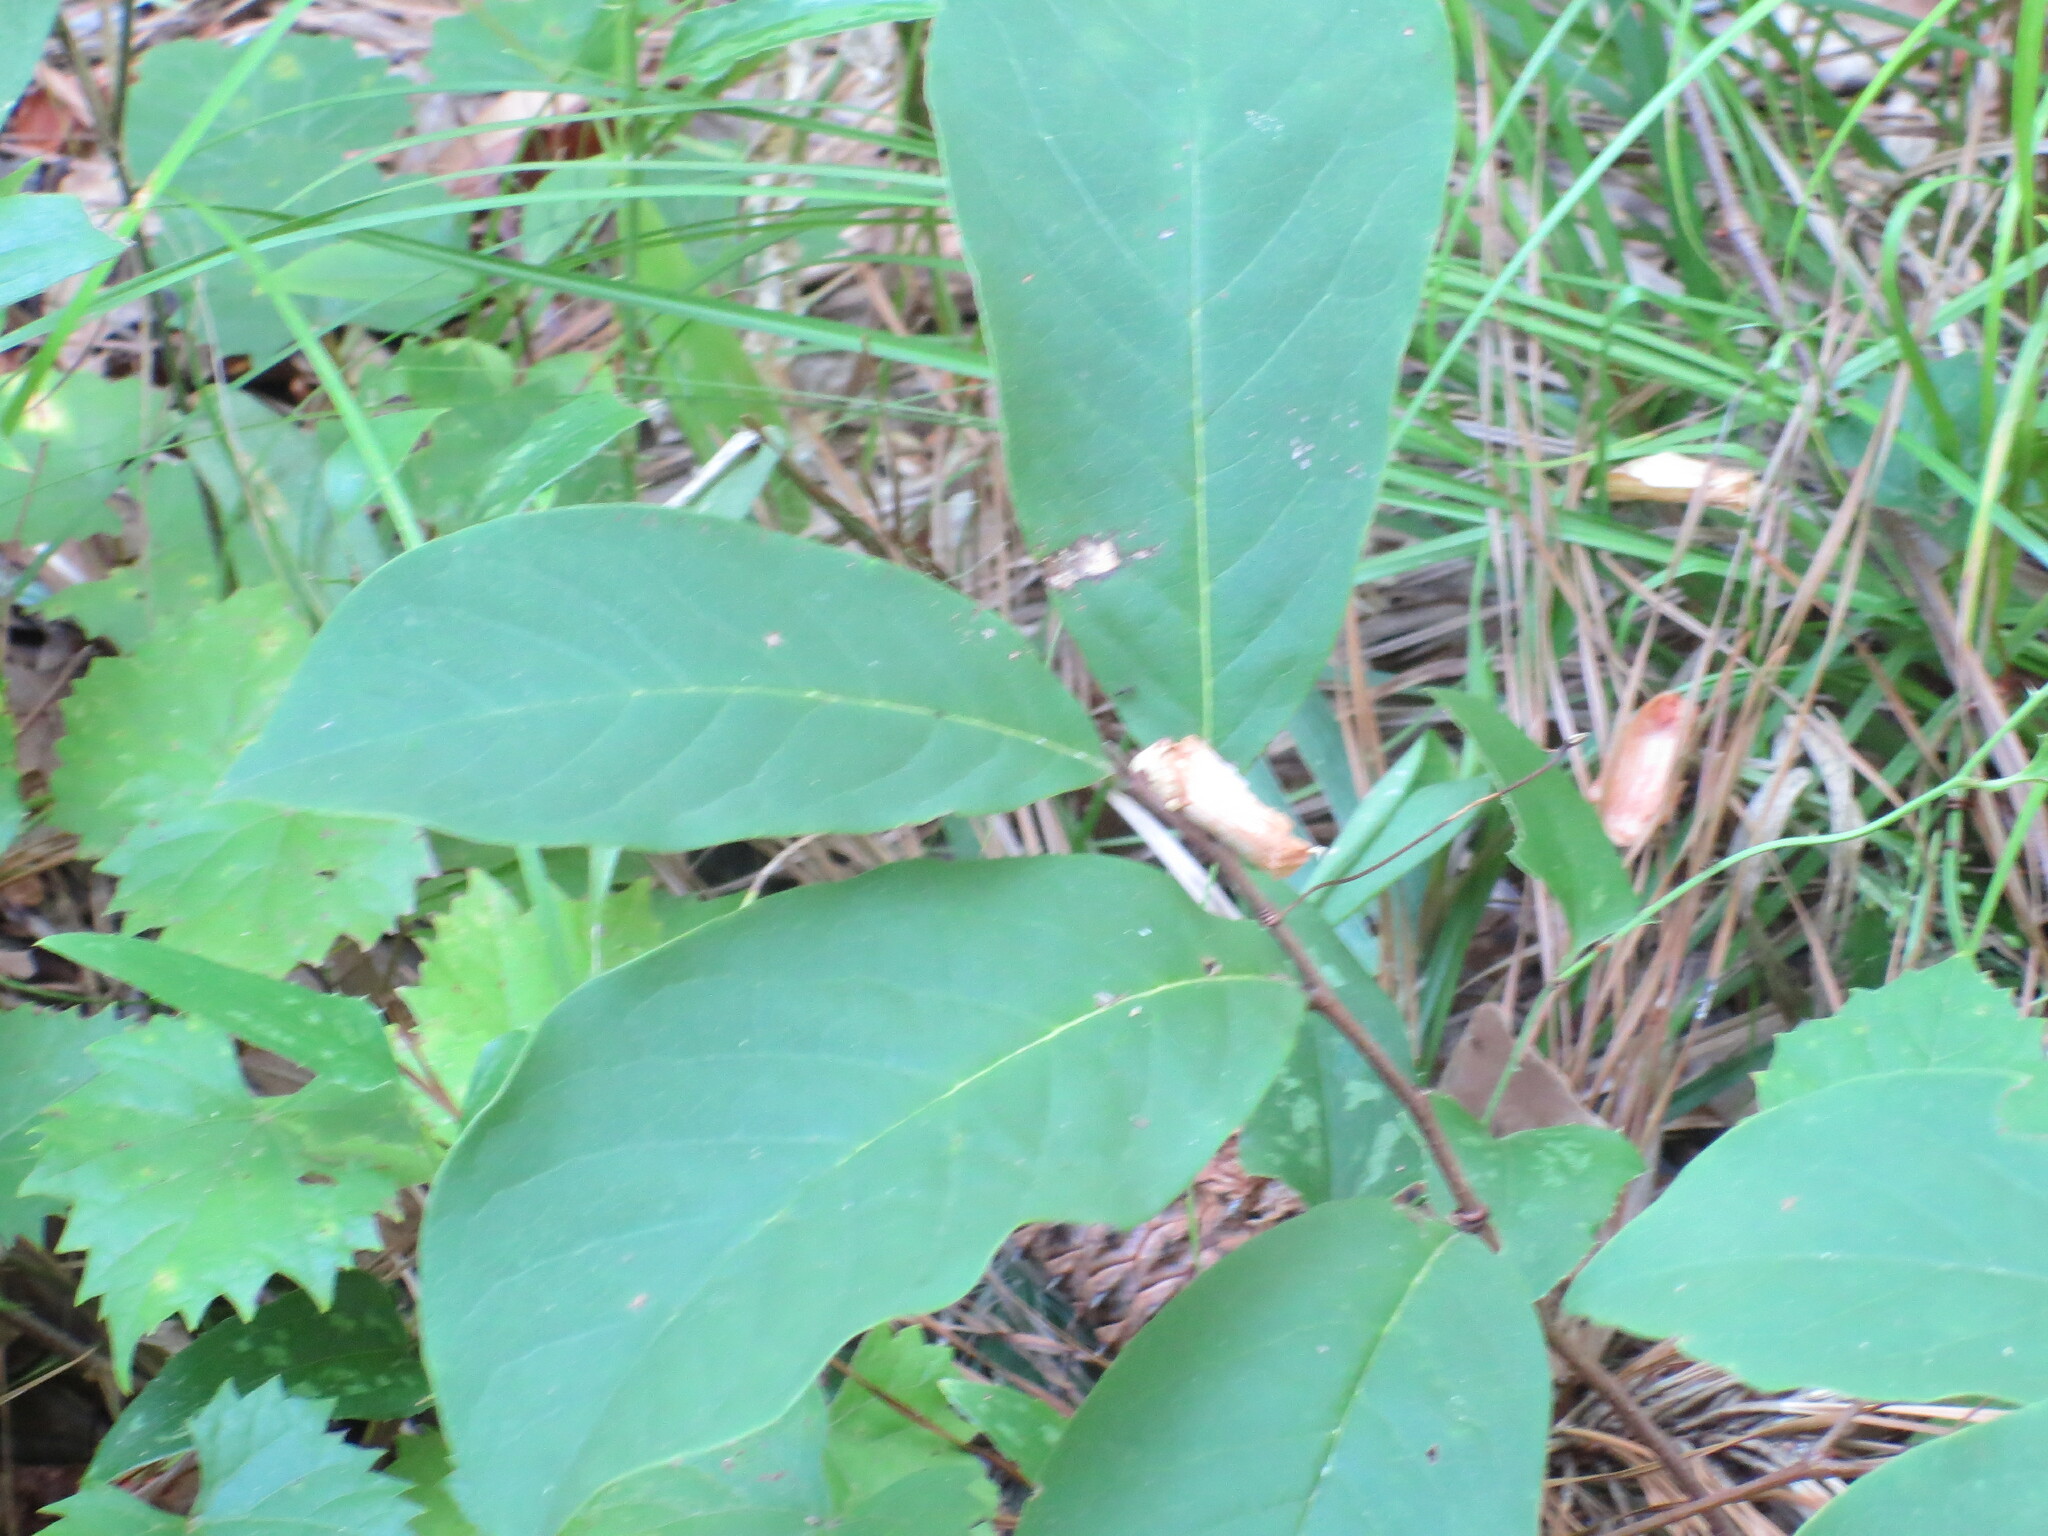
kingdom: Plantae
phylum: Tracheophyta
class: Magnoliopsida
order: Magnoliales
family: Annonaceae
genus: Asimina
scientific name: Asimina parviflora
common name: Dwarf pawpaw
